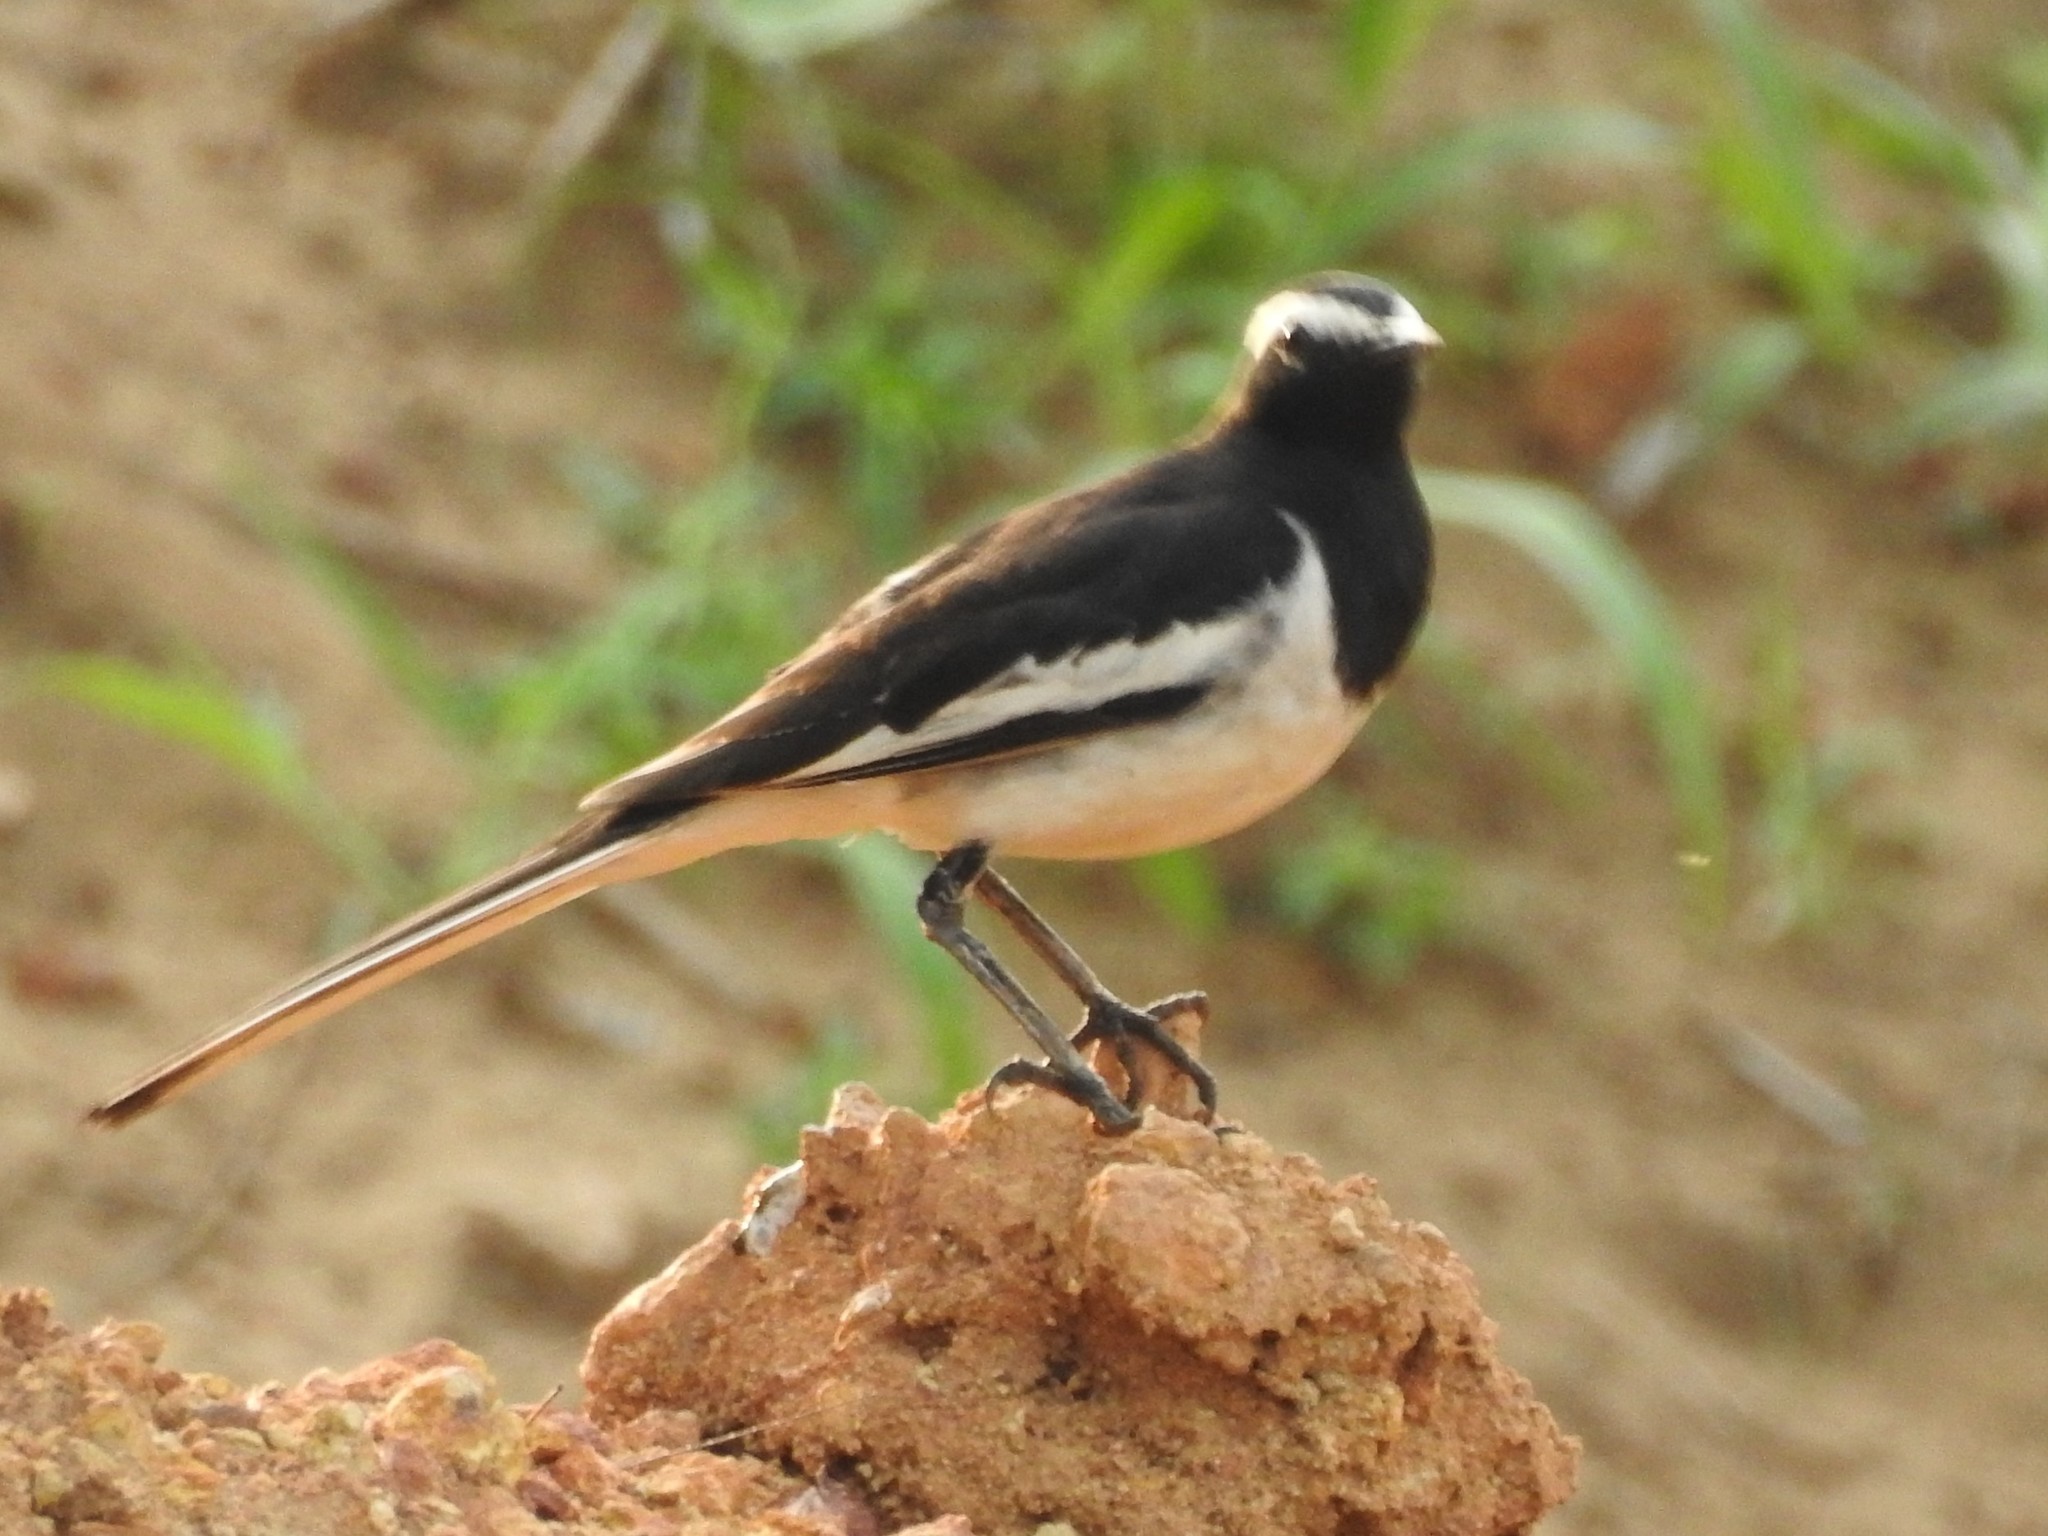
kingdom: Animalia
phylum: Chordata
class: Aves
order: Passeriformes
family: Motacillidae
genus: Motacilla
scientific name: Motacilla maderaspatensis
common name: White-browed wagtail
